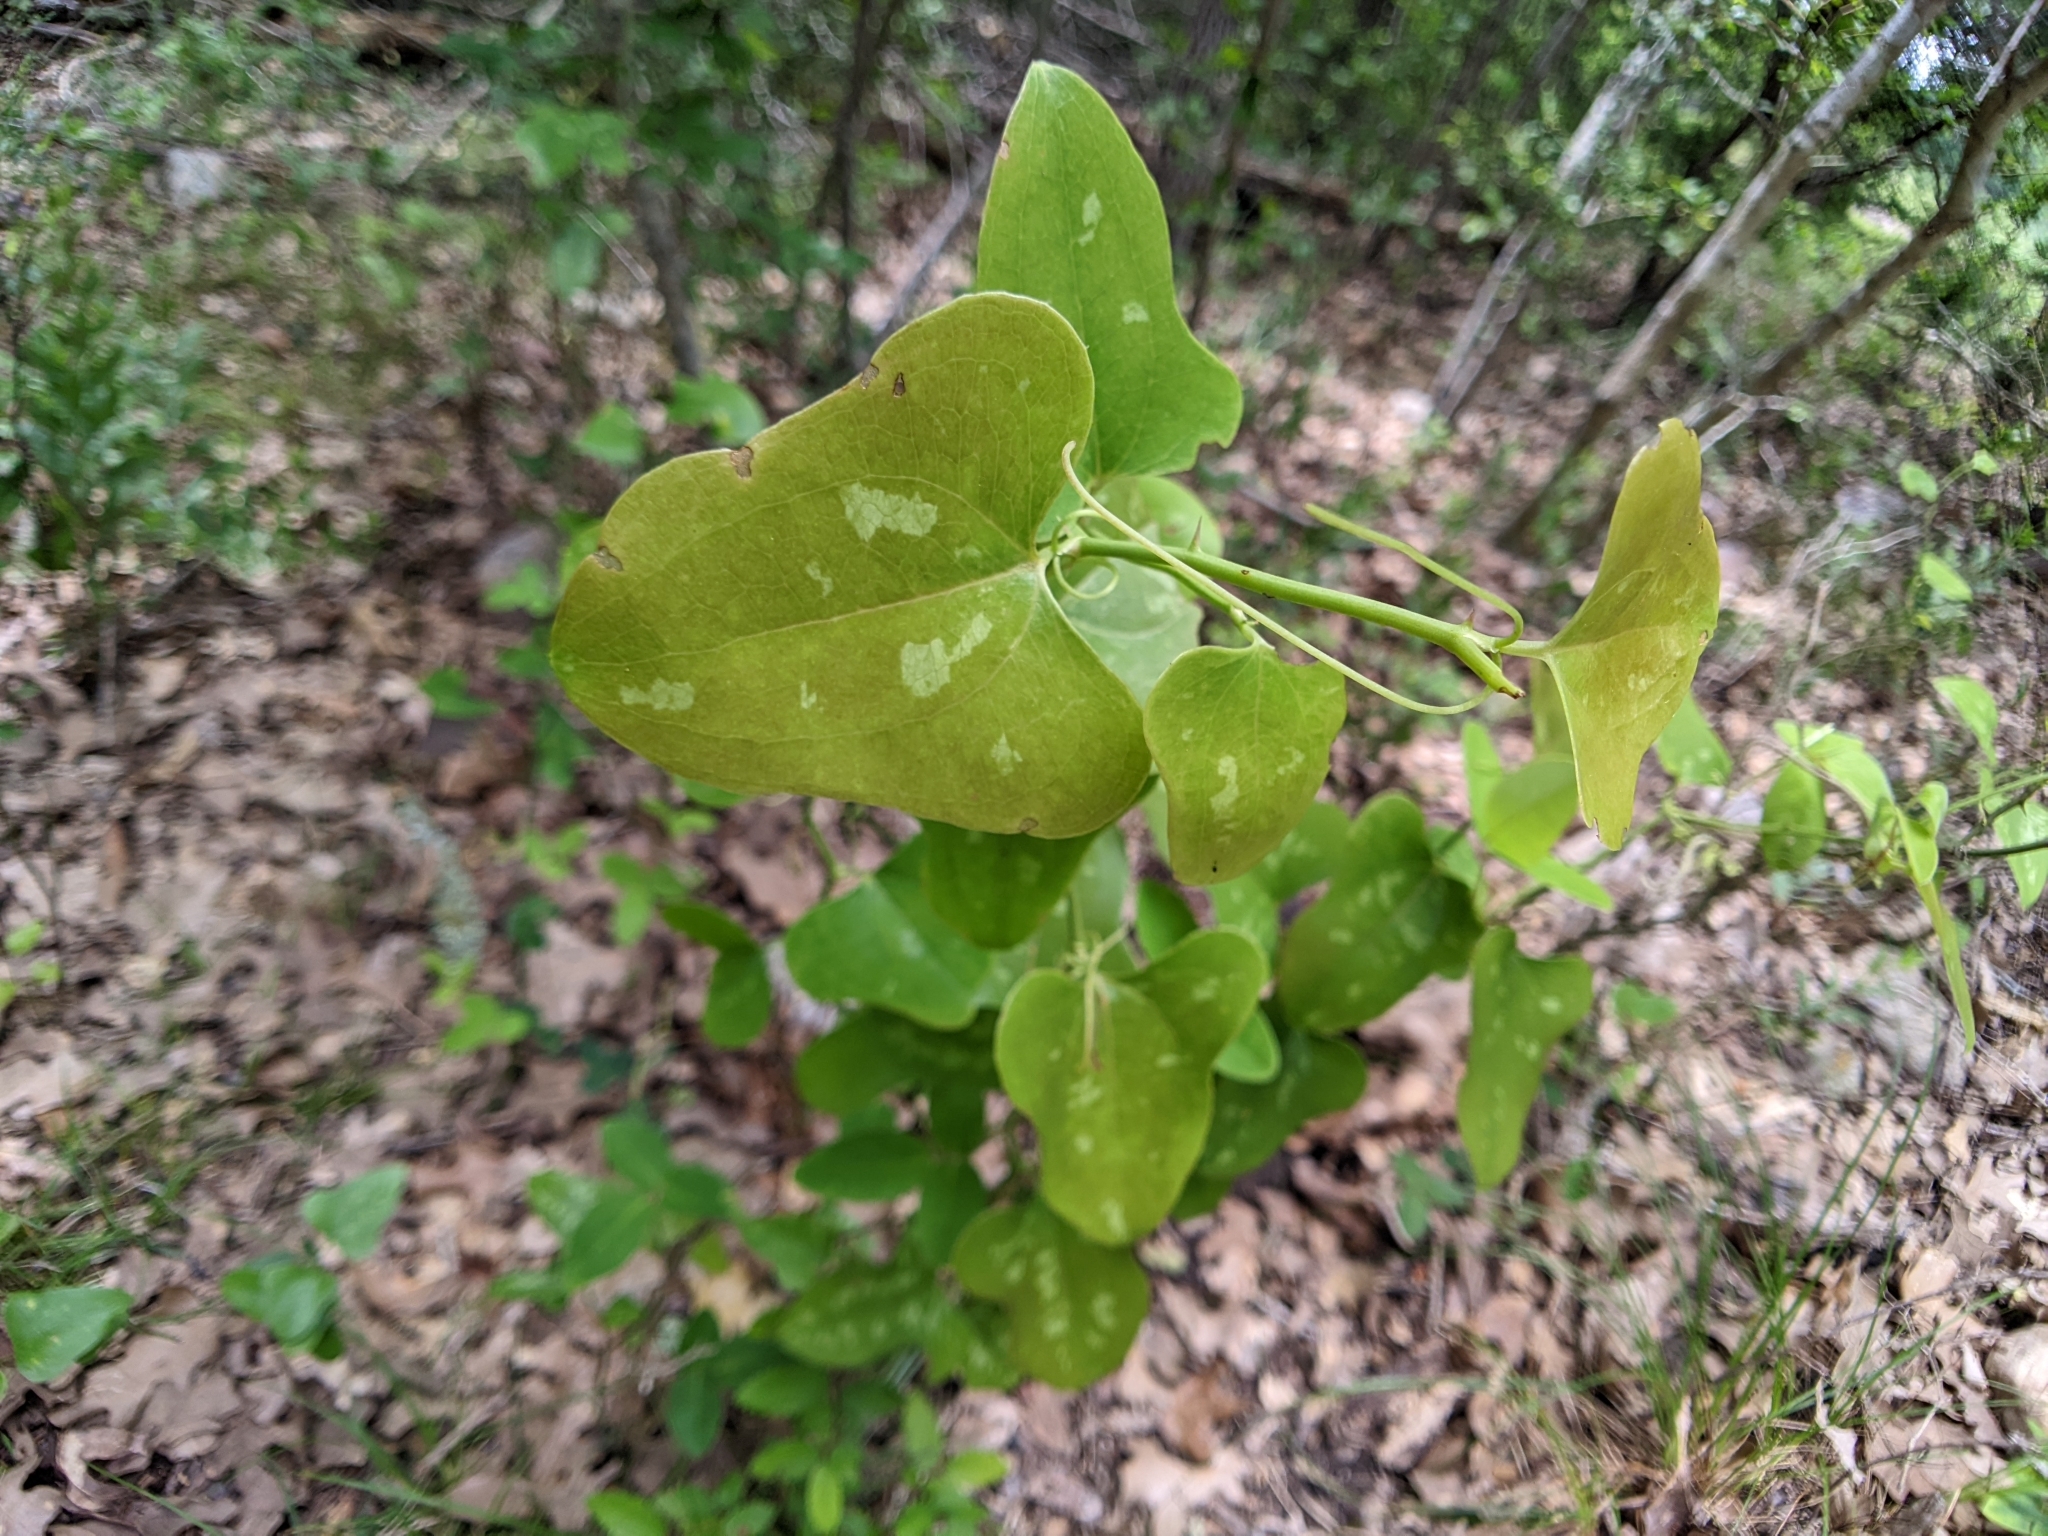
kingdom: Plantae
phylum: Tracheophyta
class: Liliopsida
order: Liliales
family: Smilacaceae
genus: Smilax
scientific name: Smilax bona-nox
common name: Catbrier
